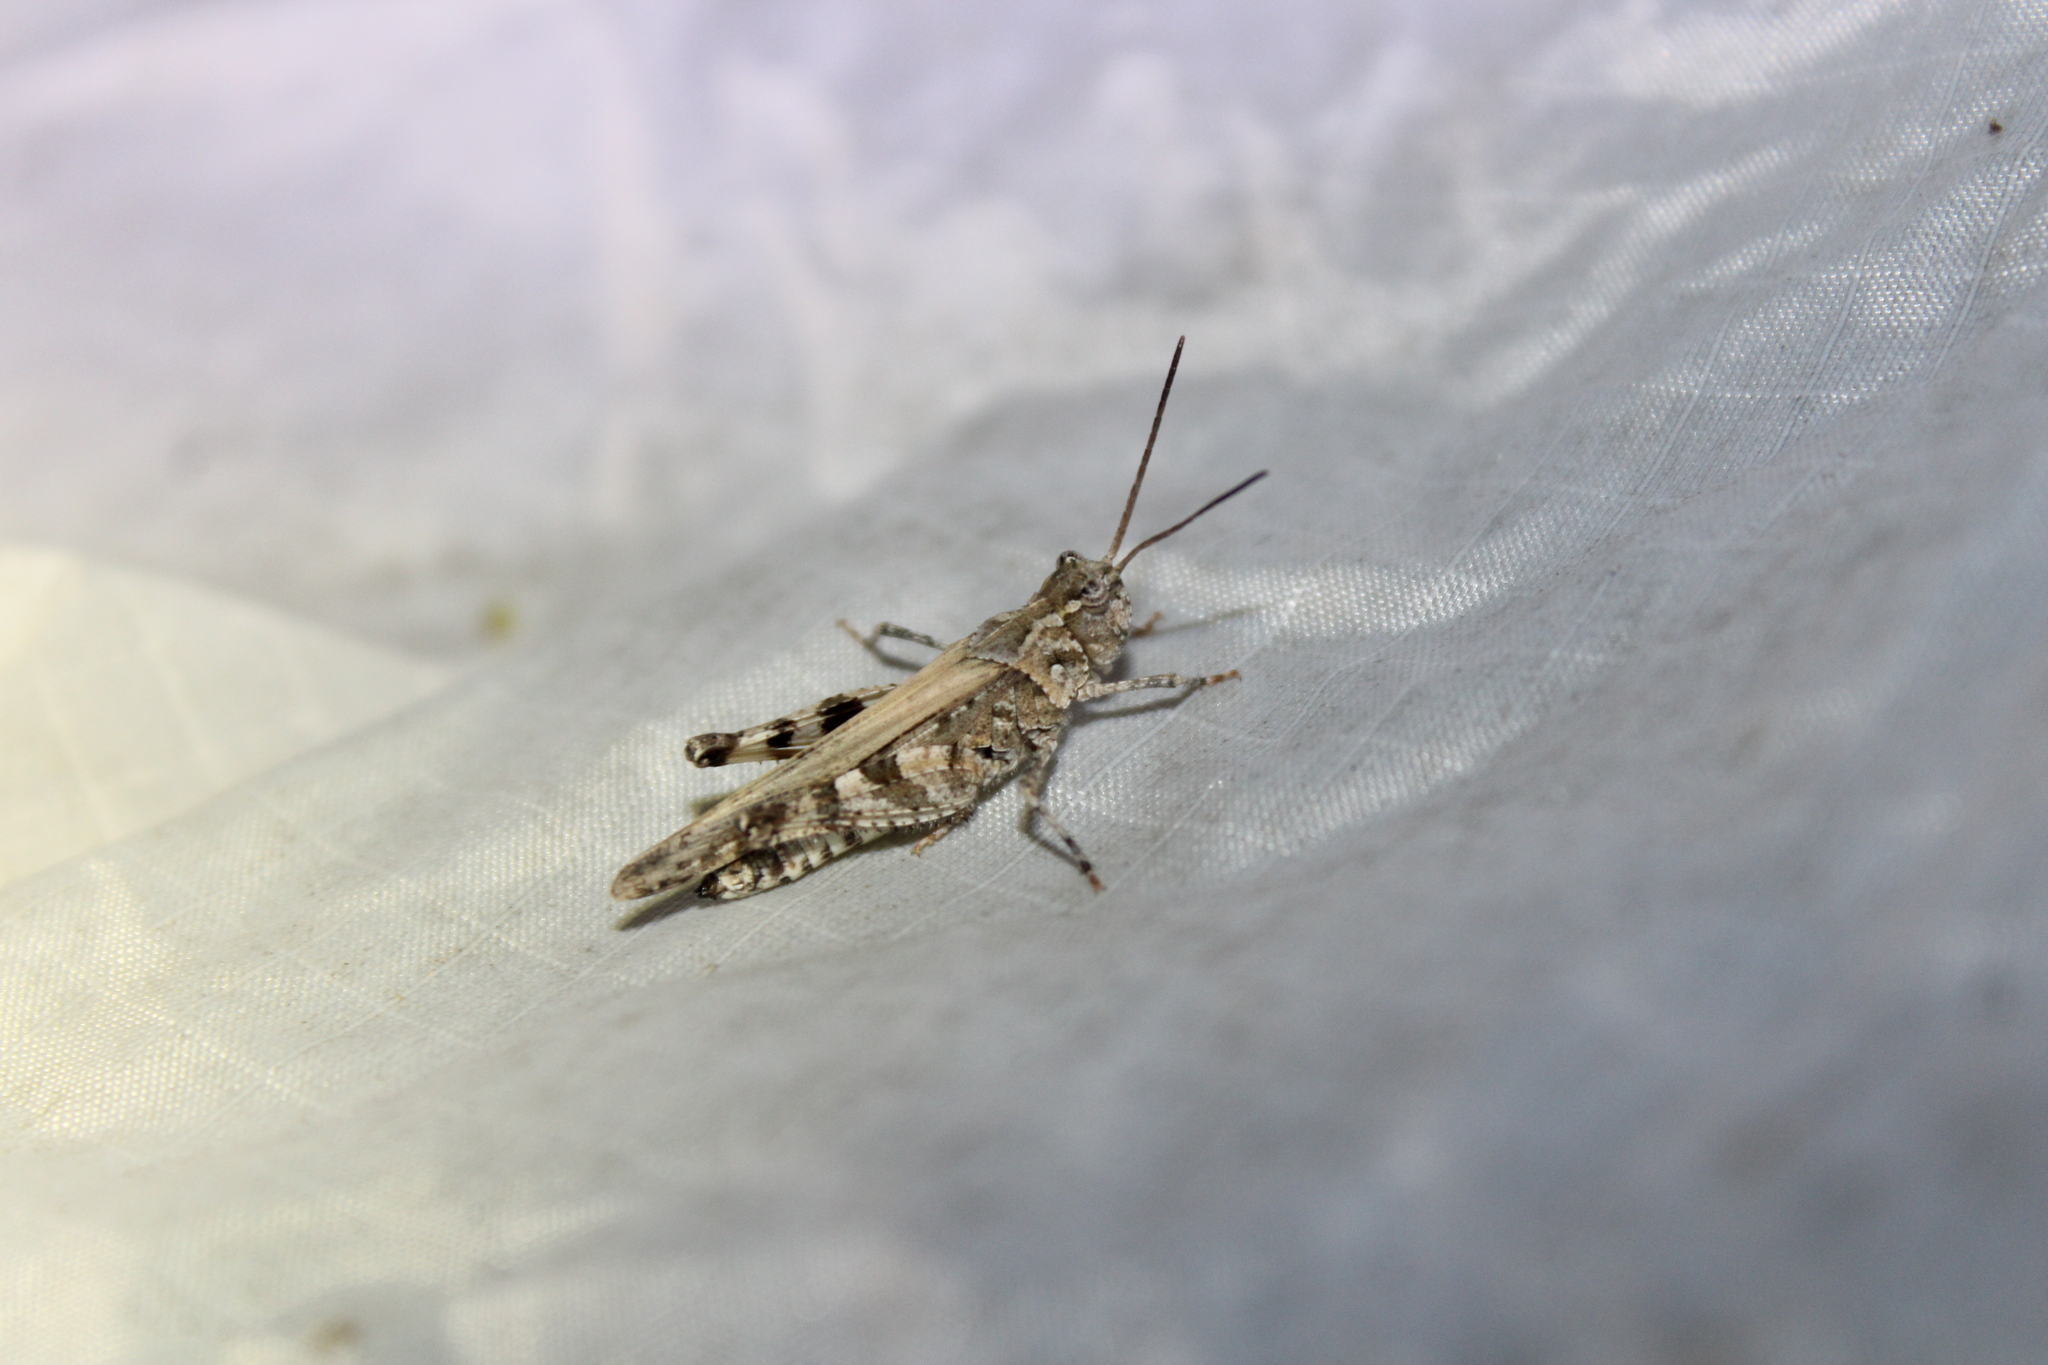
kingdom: Animalia
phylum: Arthropoda
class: Insecta
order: Orthoptera
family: Acrididae
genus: Psinidia
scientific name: Psinidia fenestralis
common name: Long-horned locust
